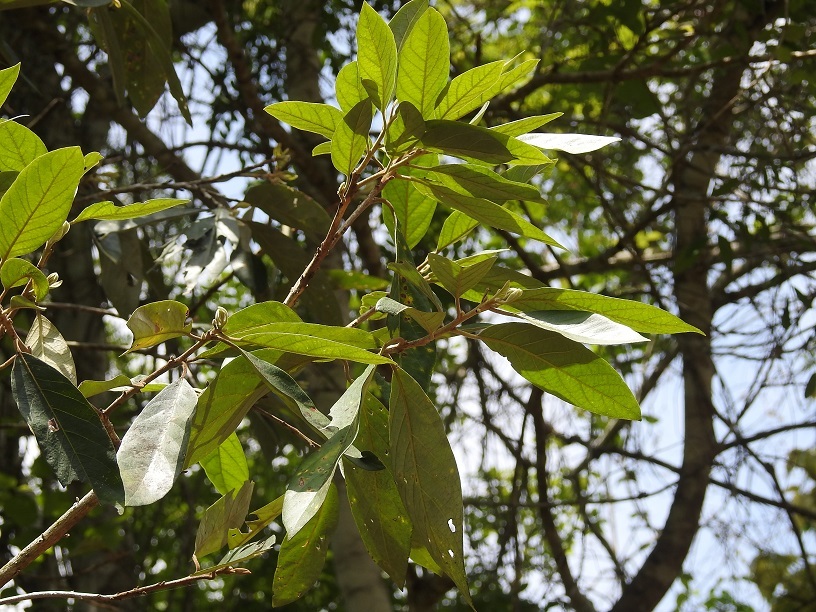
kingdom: Plantae
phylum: Tracheophyta
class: Magnoliopsida
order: Ericales
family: Styracaceae
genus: Styrax
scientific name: Styrax argenteus
